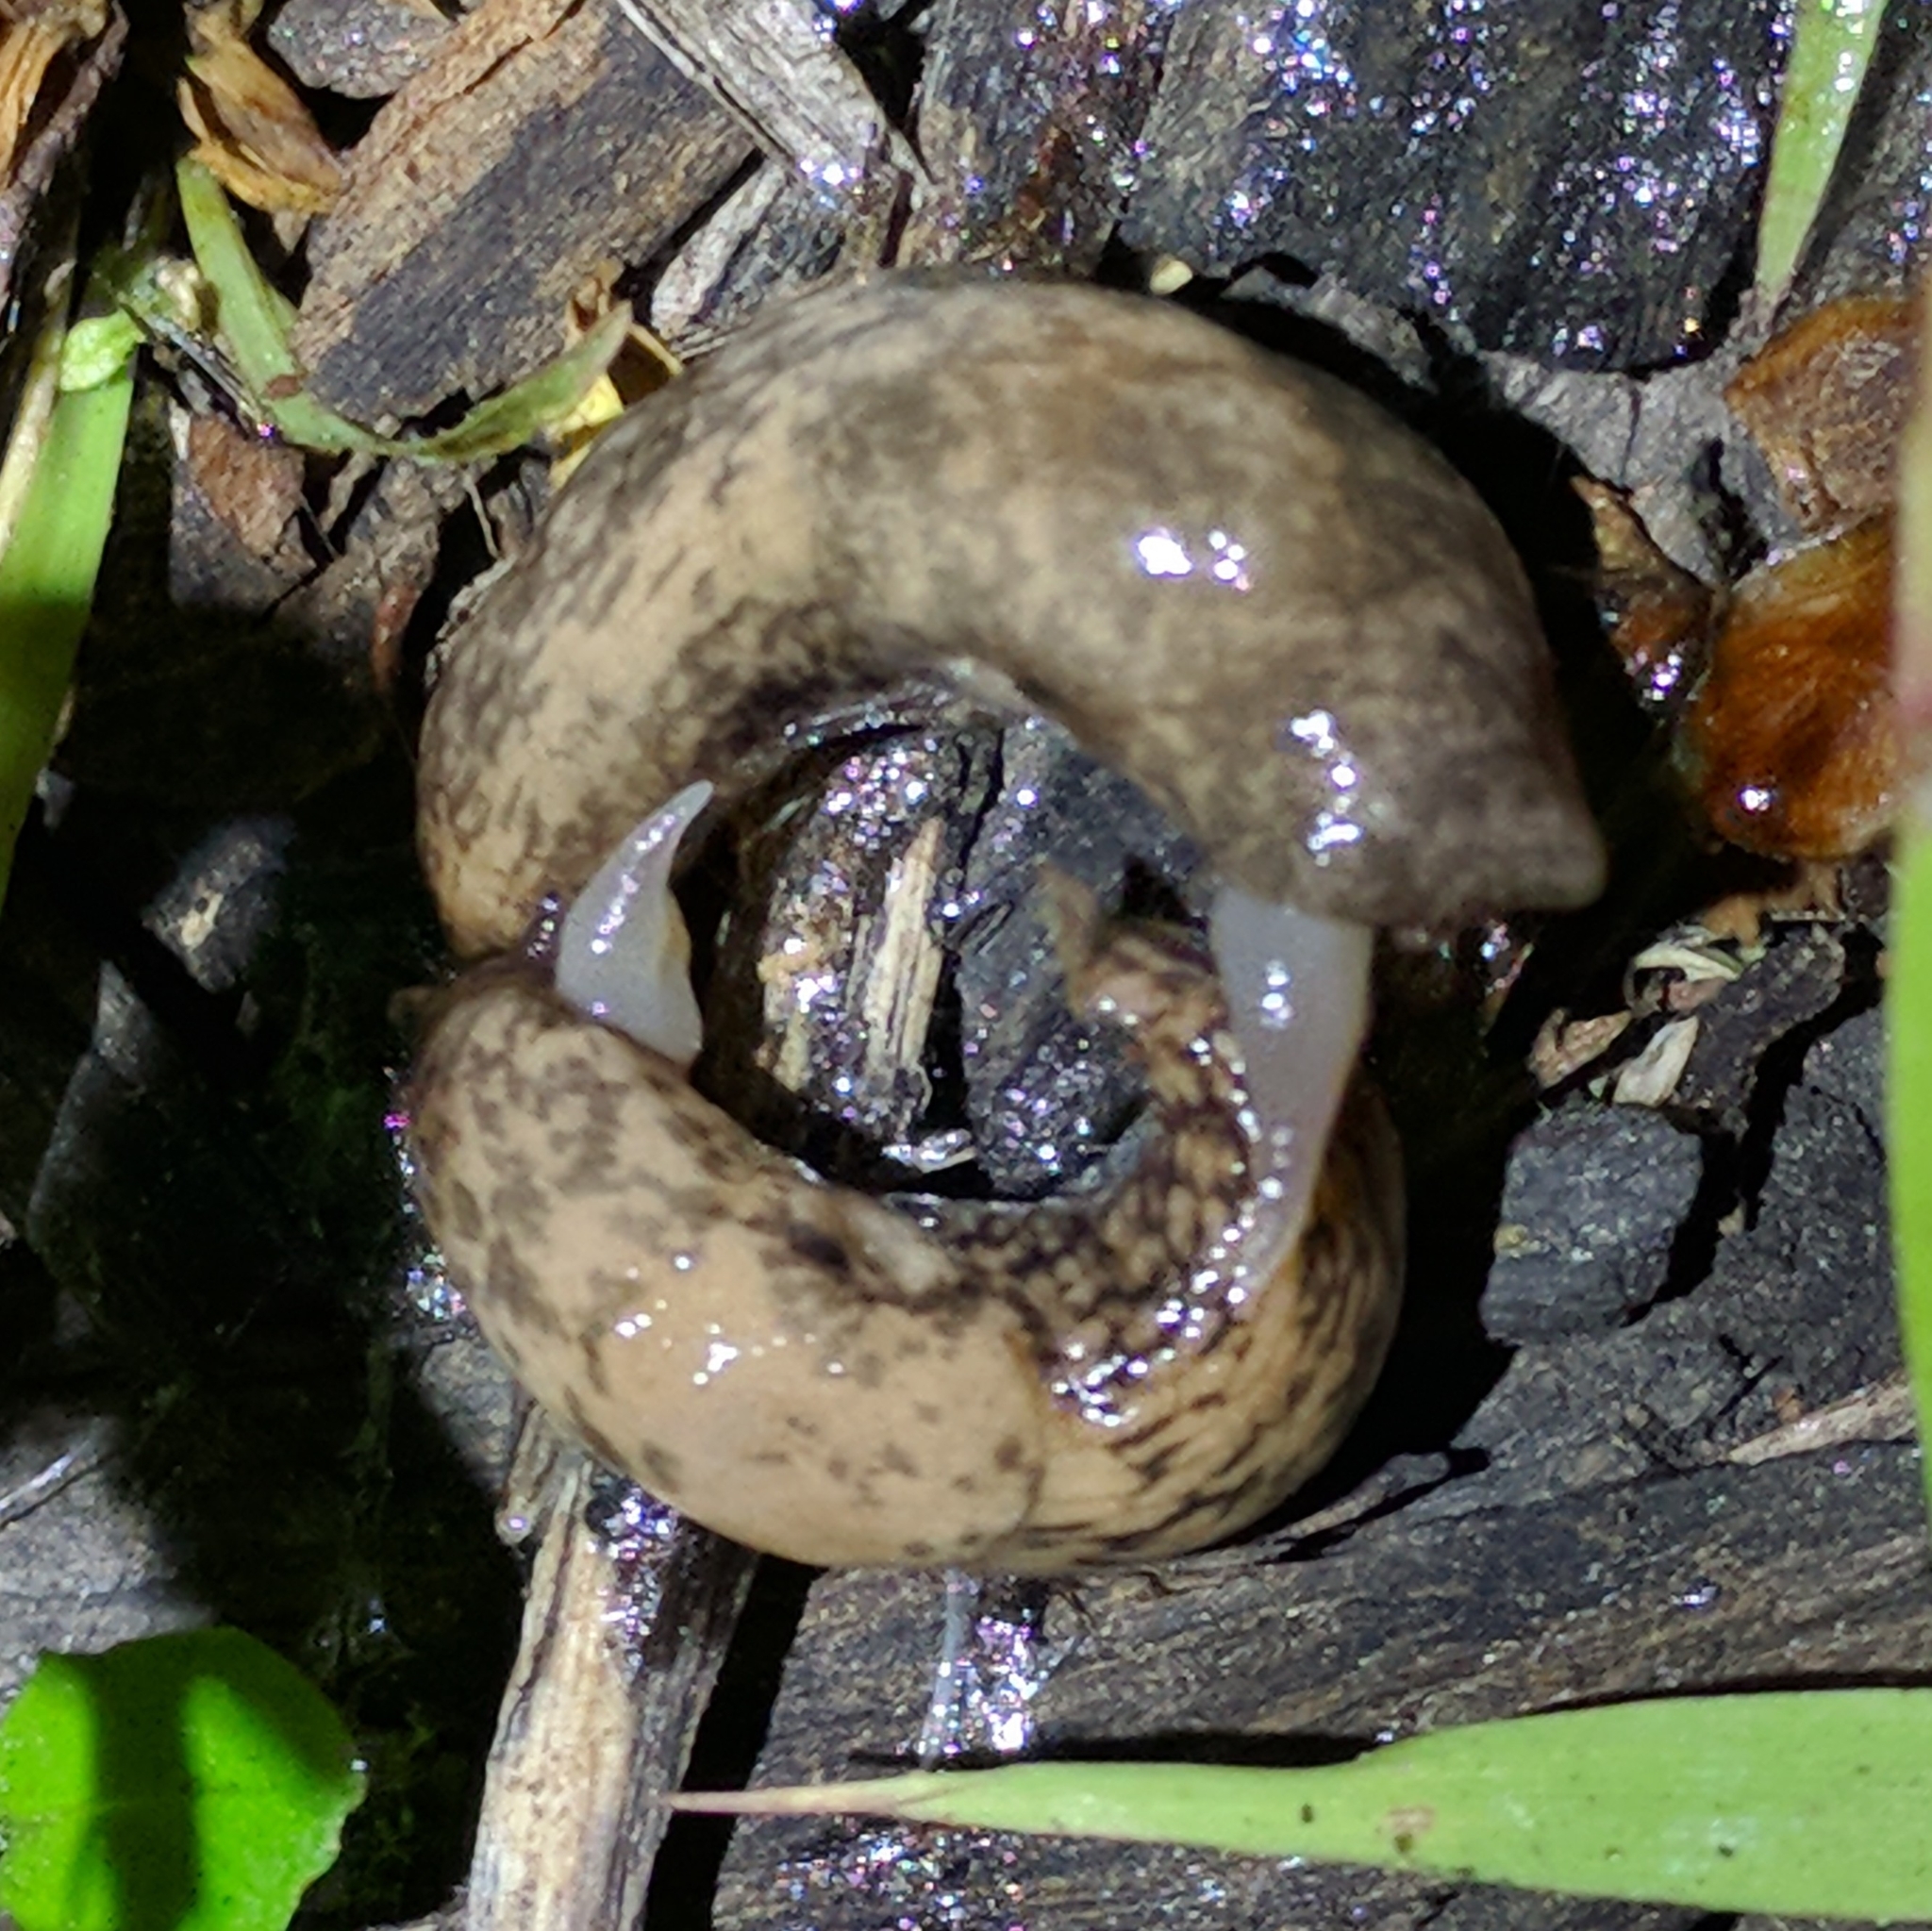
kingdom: Animalia
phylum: Mollusca
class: Gastropoda
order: Stylommatophora
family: Agriolimacidae
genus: Deroceras
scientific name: Deroceras reticulatum
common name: Gray field slug
